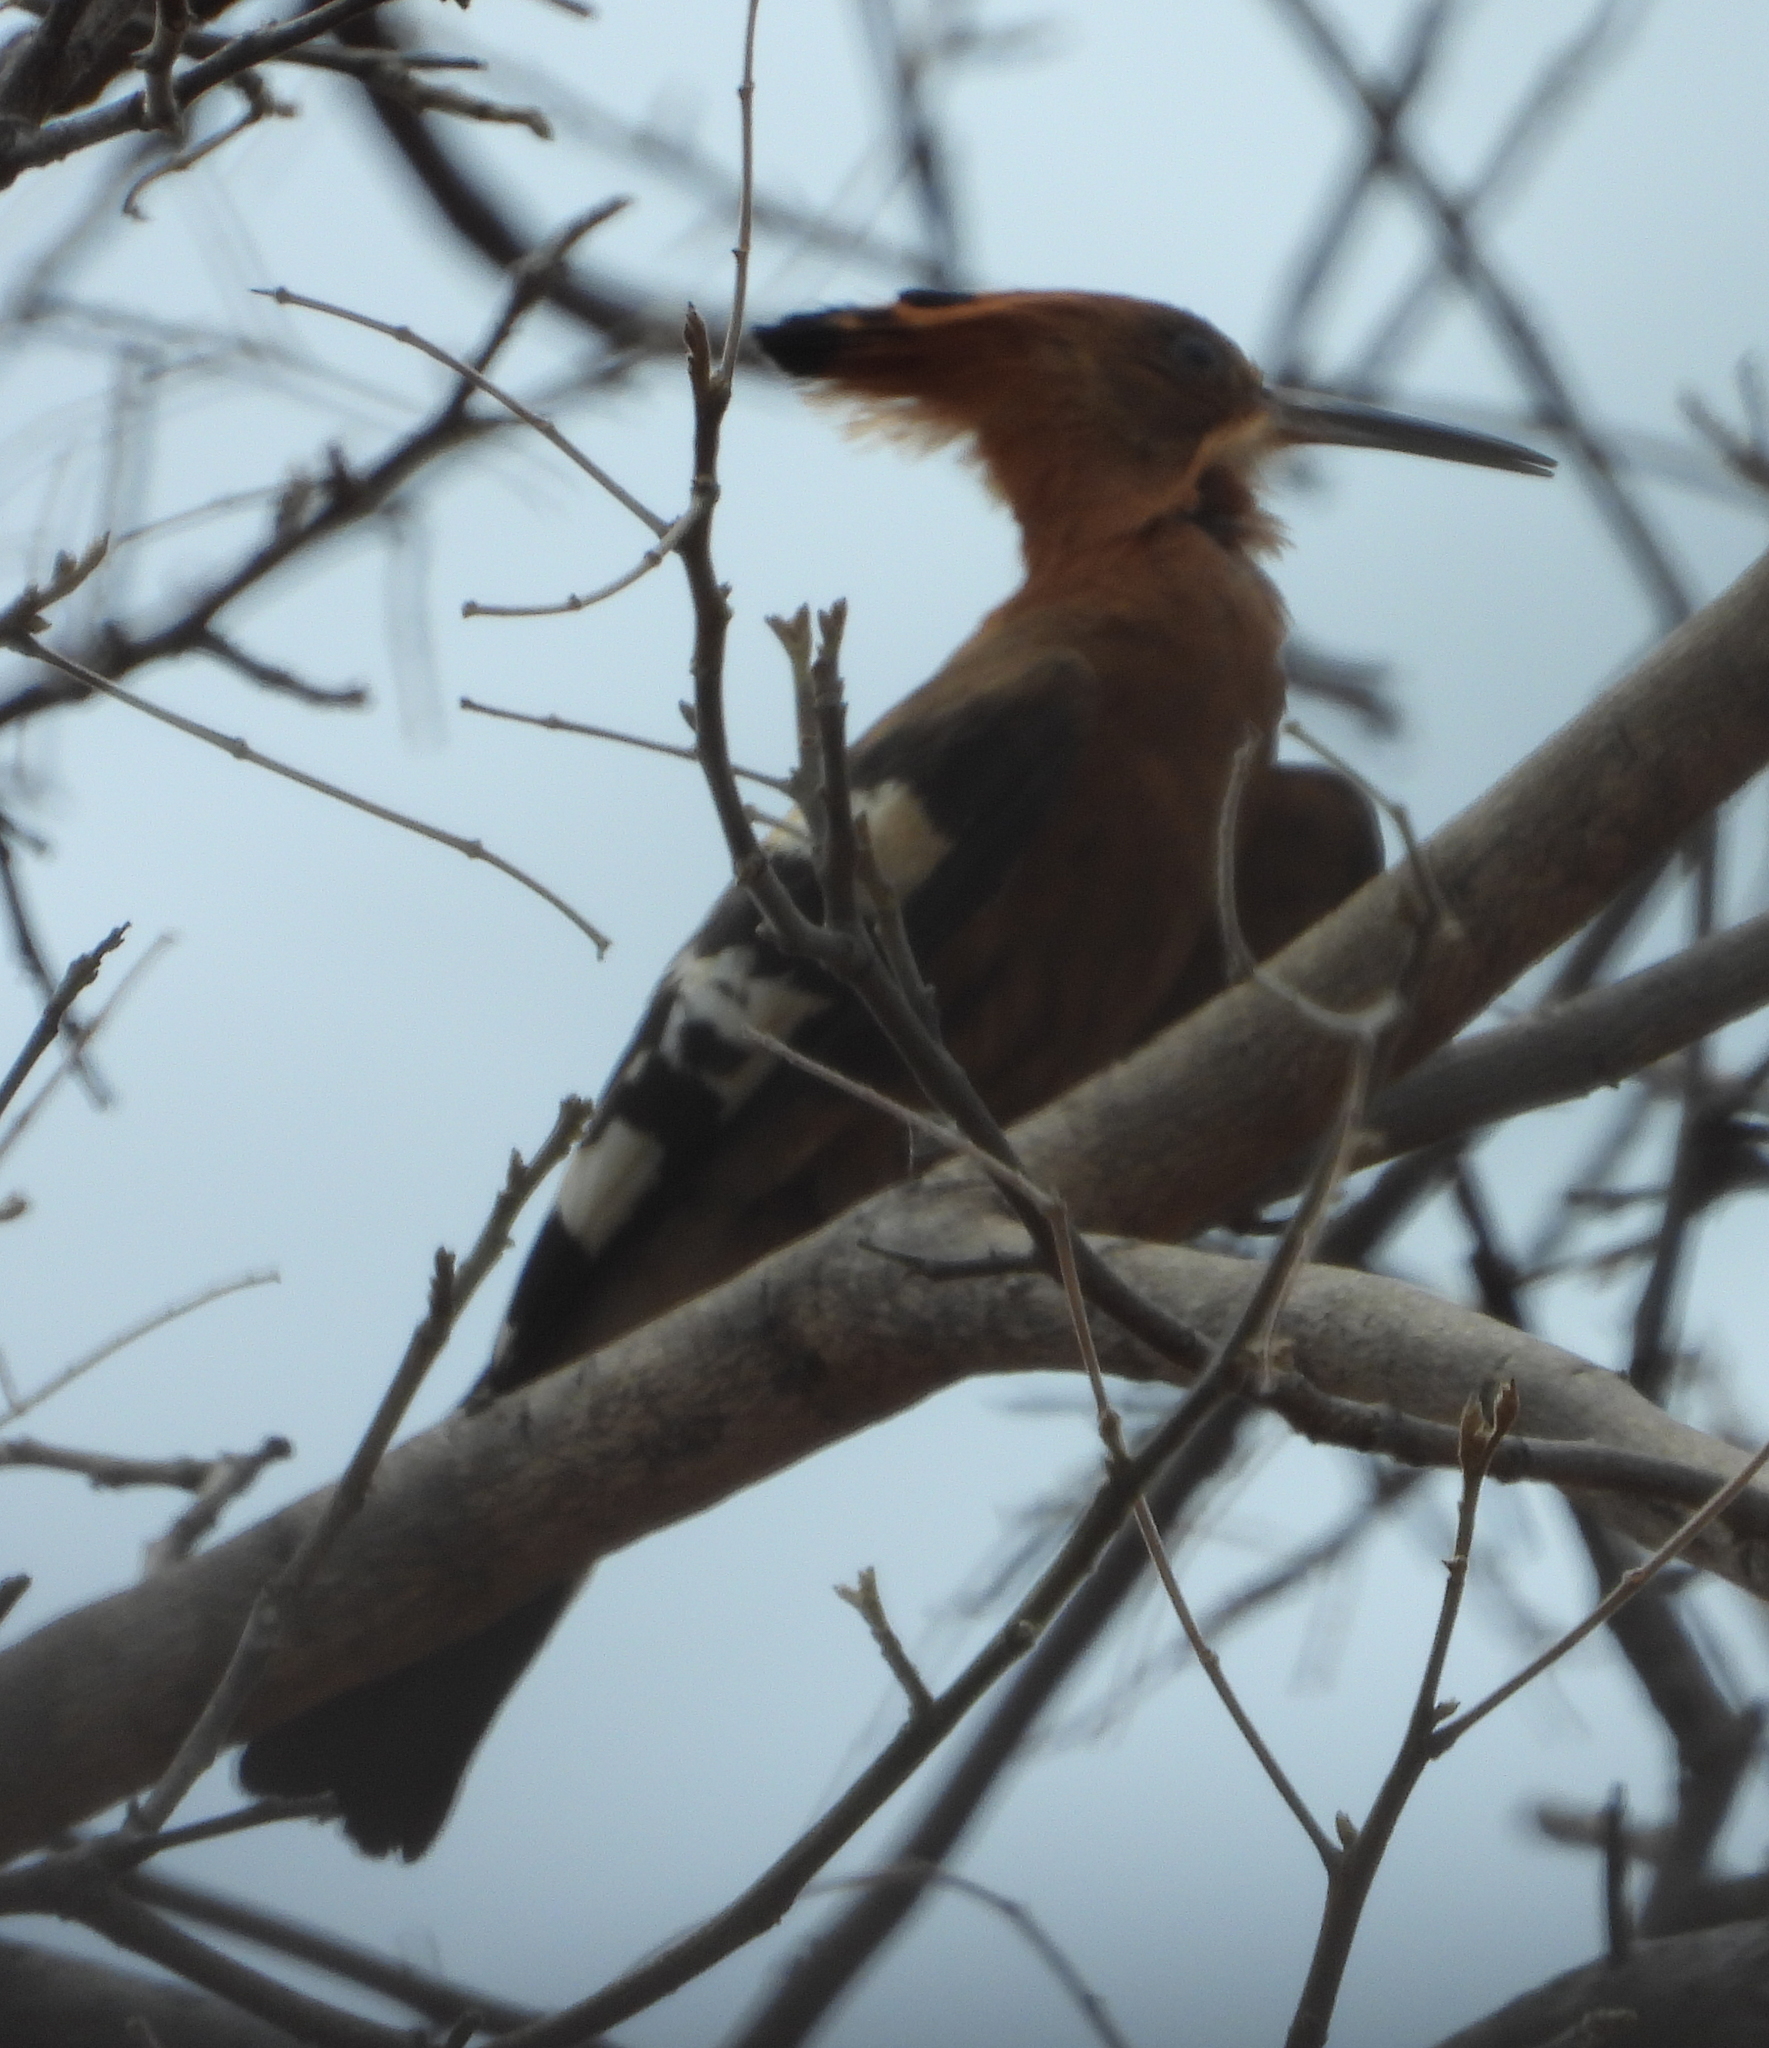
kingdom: Animalia
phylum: Chordata
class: Aves
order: Bucerotiformes
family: Upupidae
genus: Upupa
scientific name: Upupa epops
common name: Eurasian hoopoe
